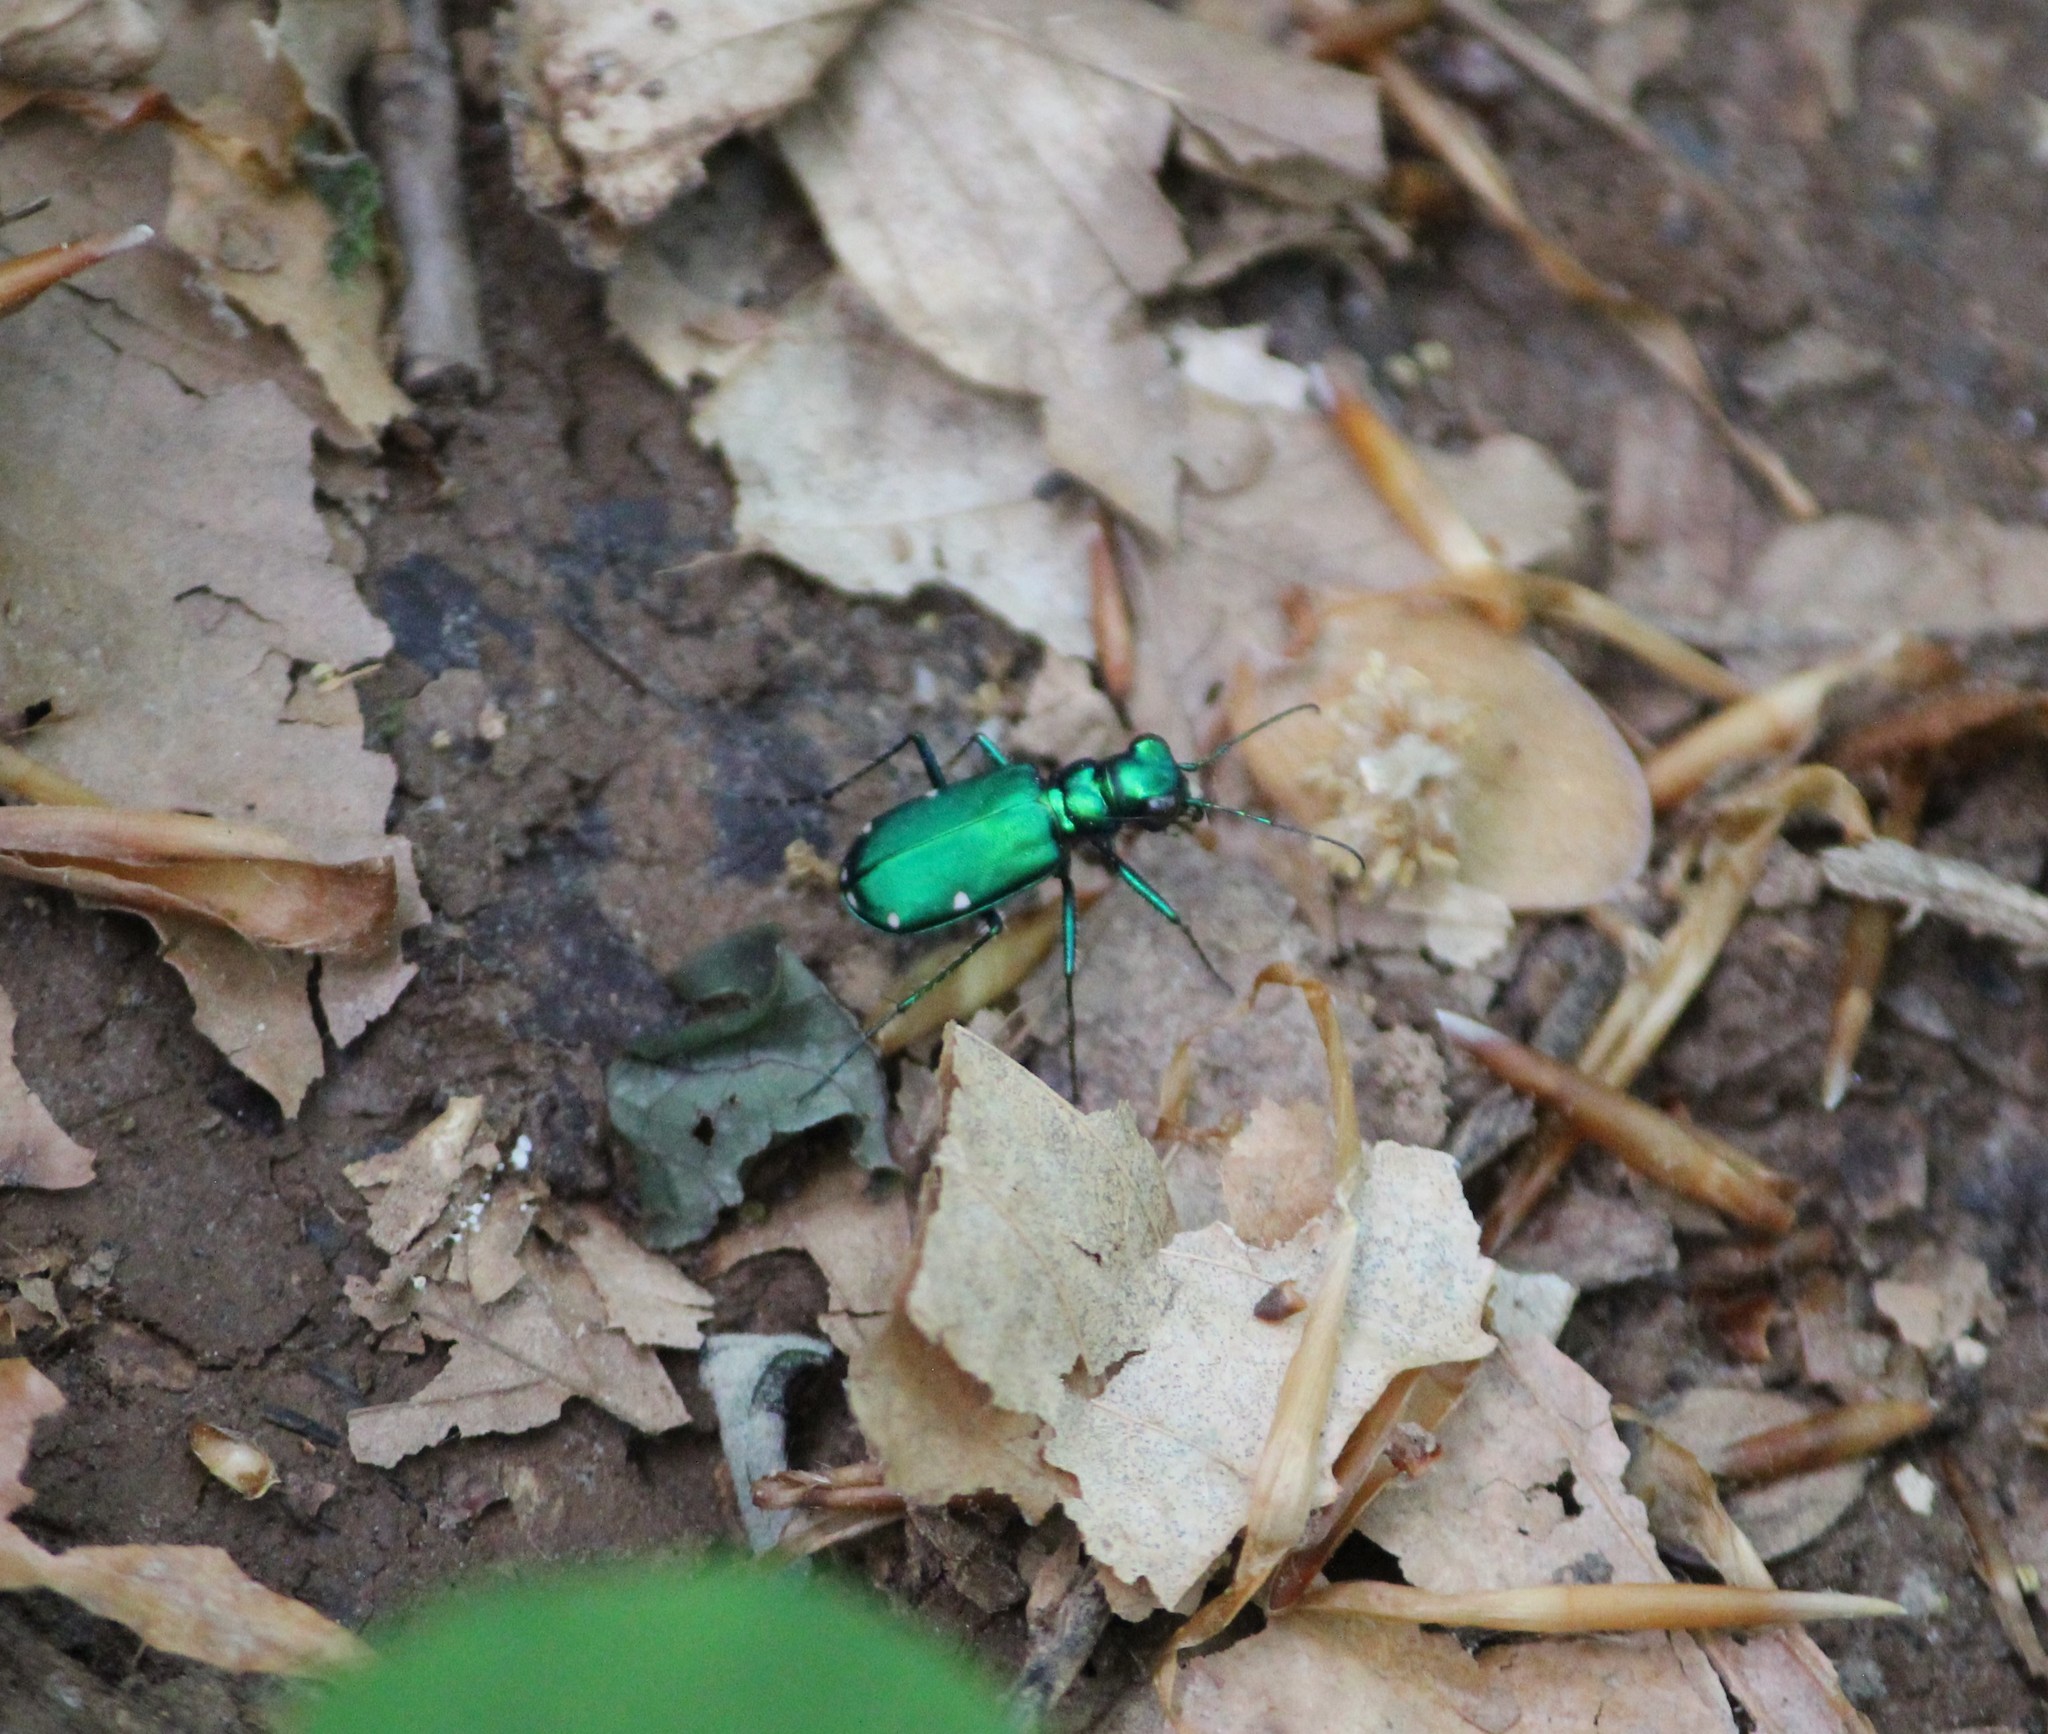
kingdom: Animalia
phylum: Arthropoda
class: Insecta
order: Coleoptera
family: Carabidae
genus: Cicindela
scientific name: Cicindela sexguttata
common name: Six-spotted tiger beetle
